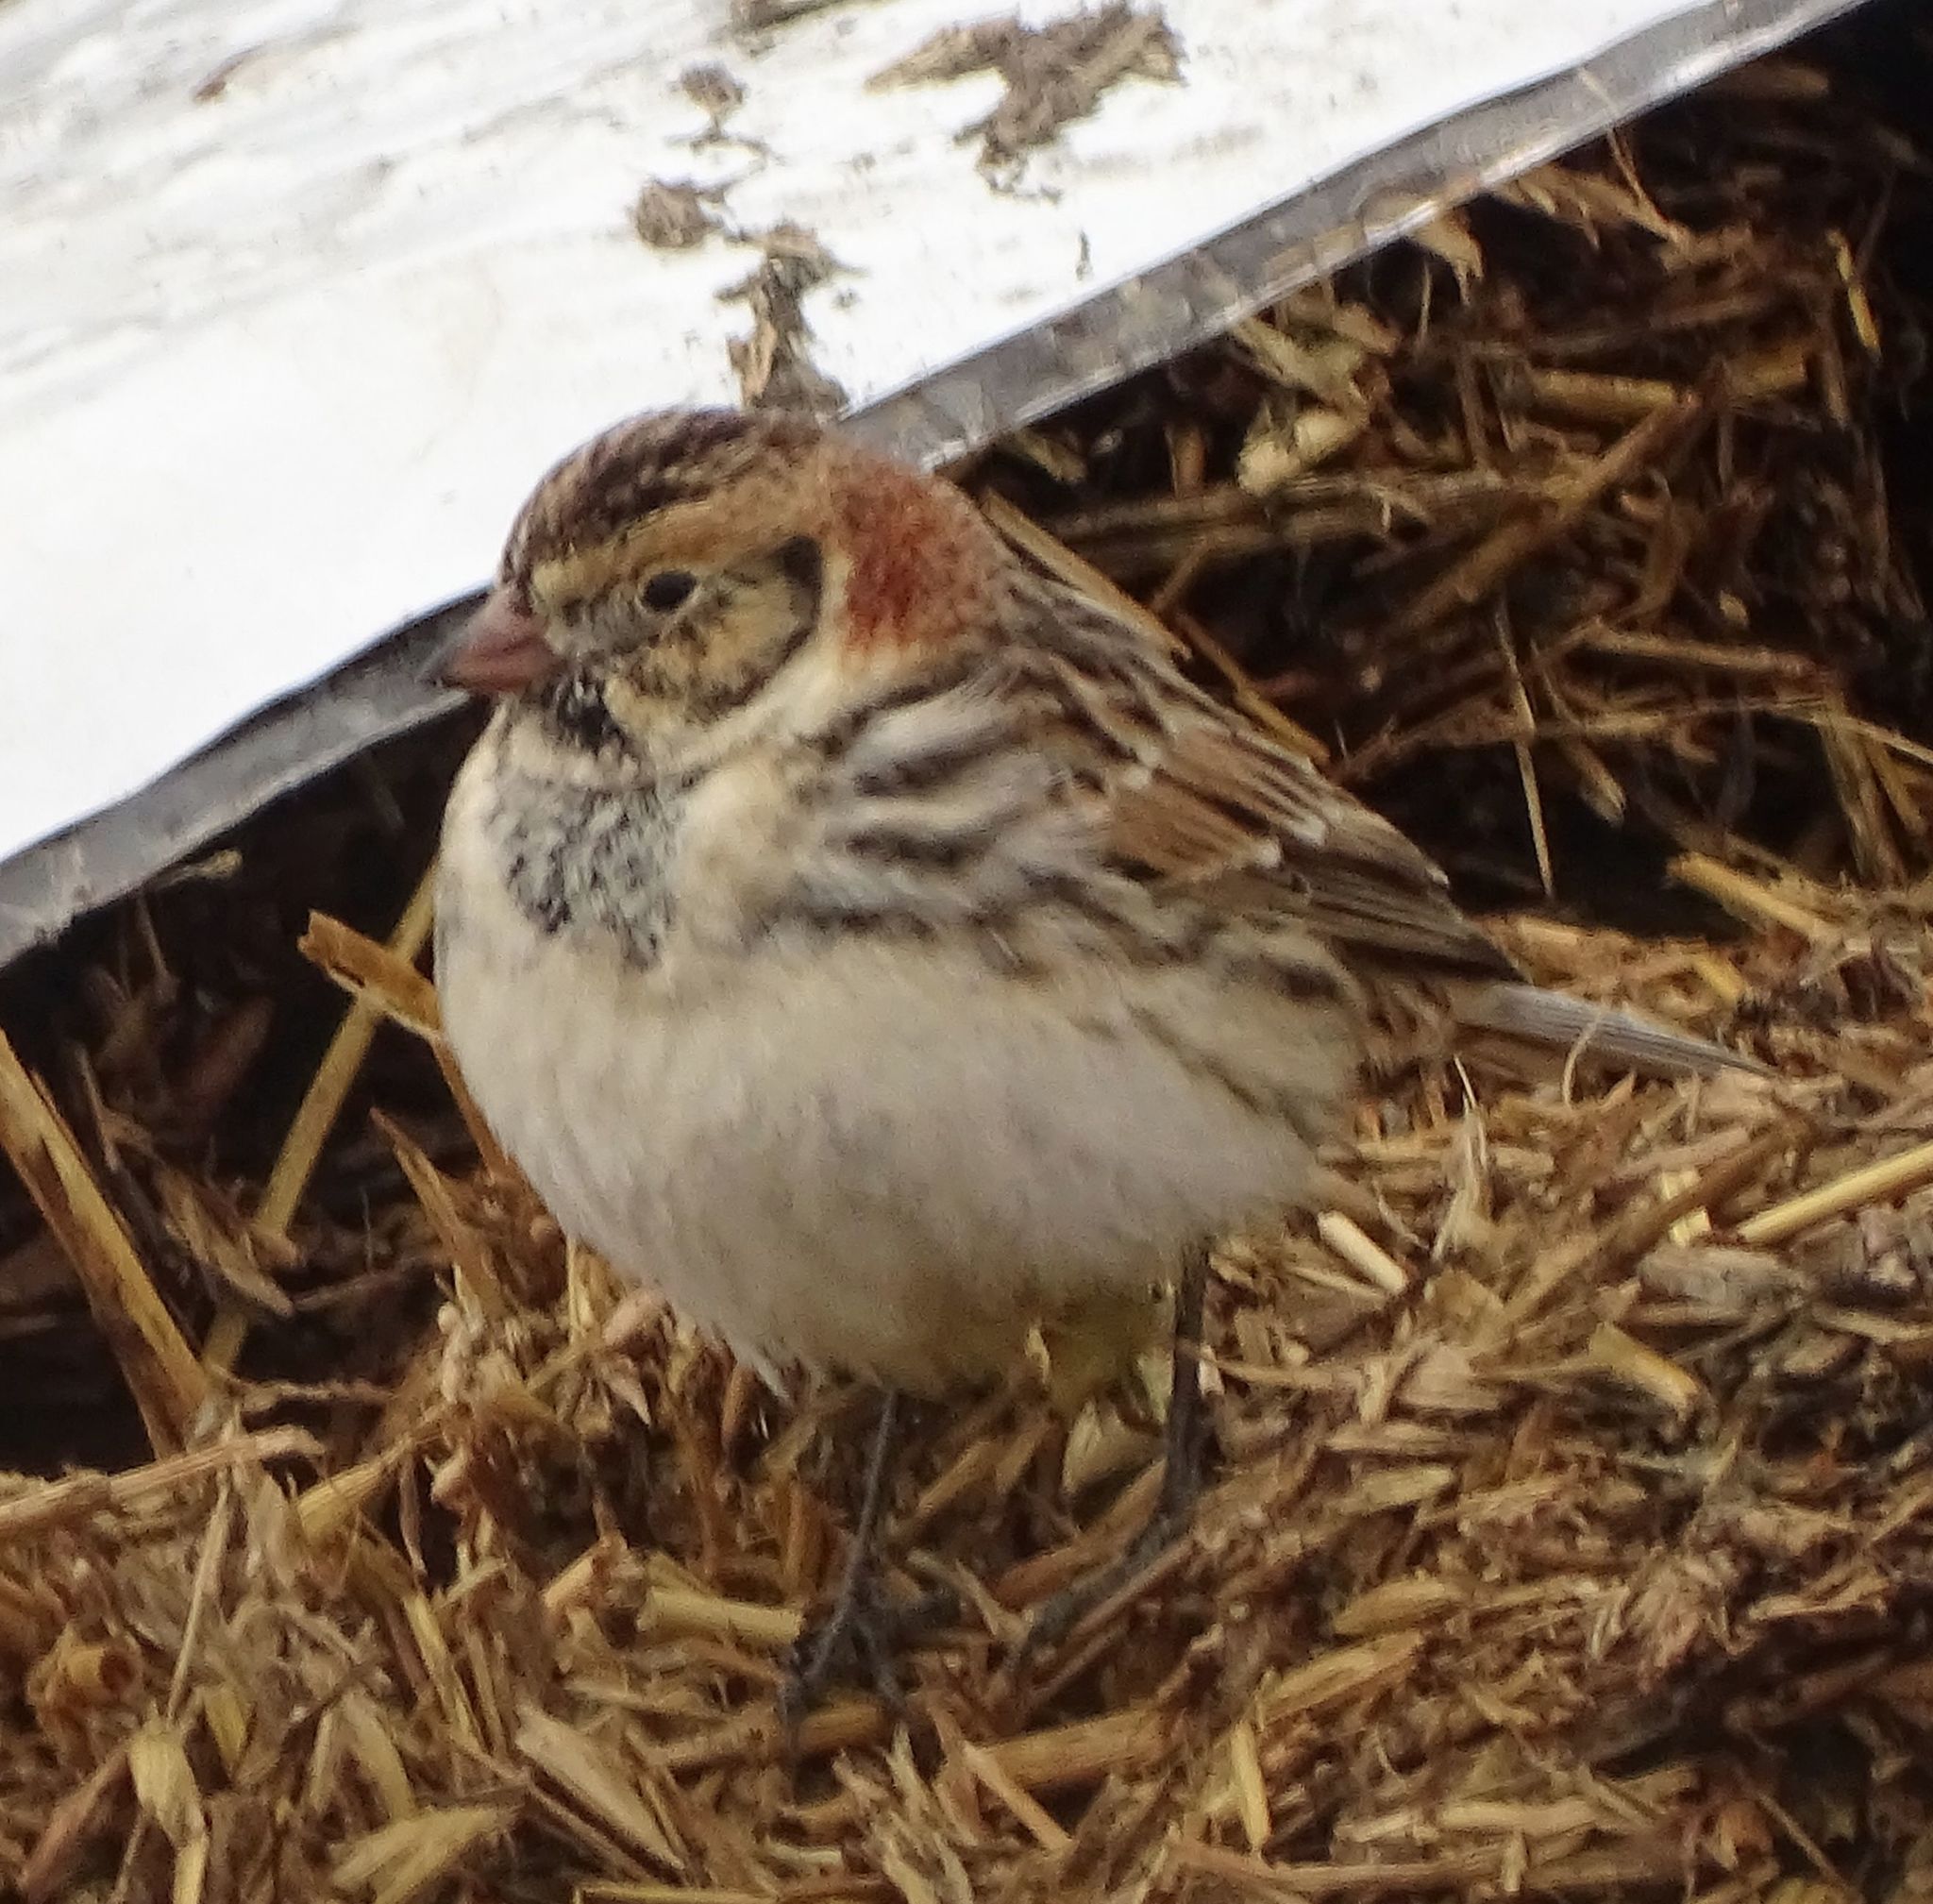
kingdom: Animalia
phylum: Chordata
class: Aves
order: Passeriformes
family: Calcariidae
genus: Calcarius
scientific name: Calcarius lapponicus
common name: Lapland longspur
